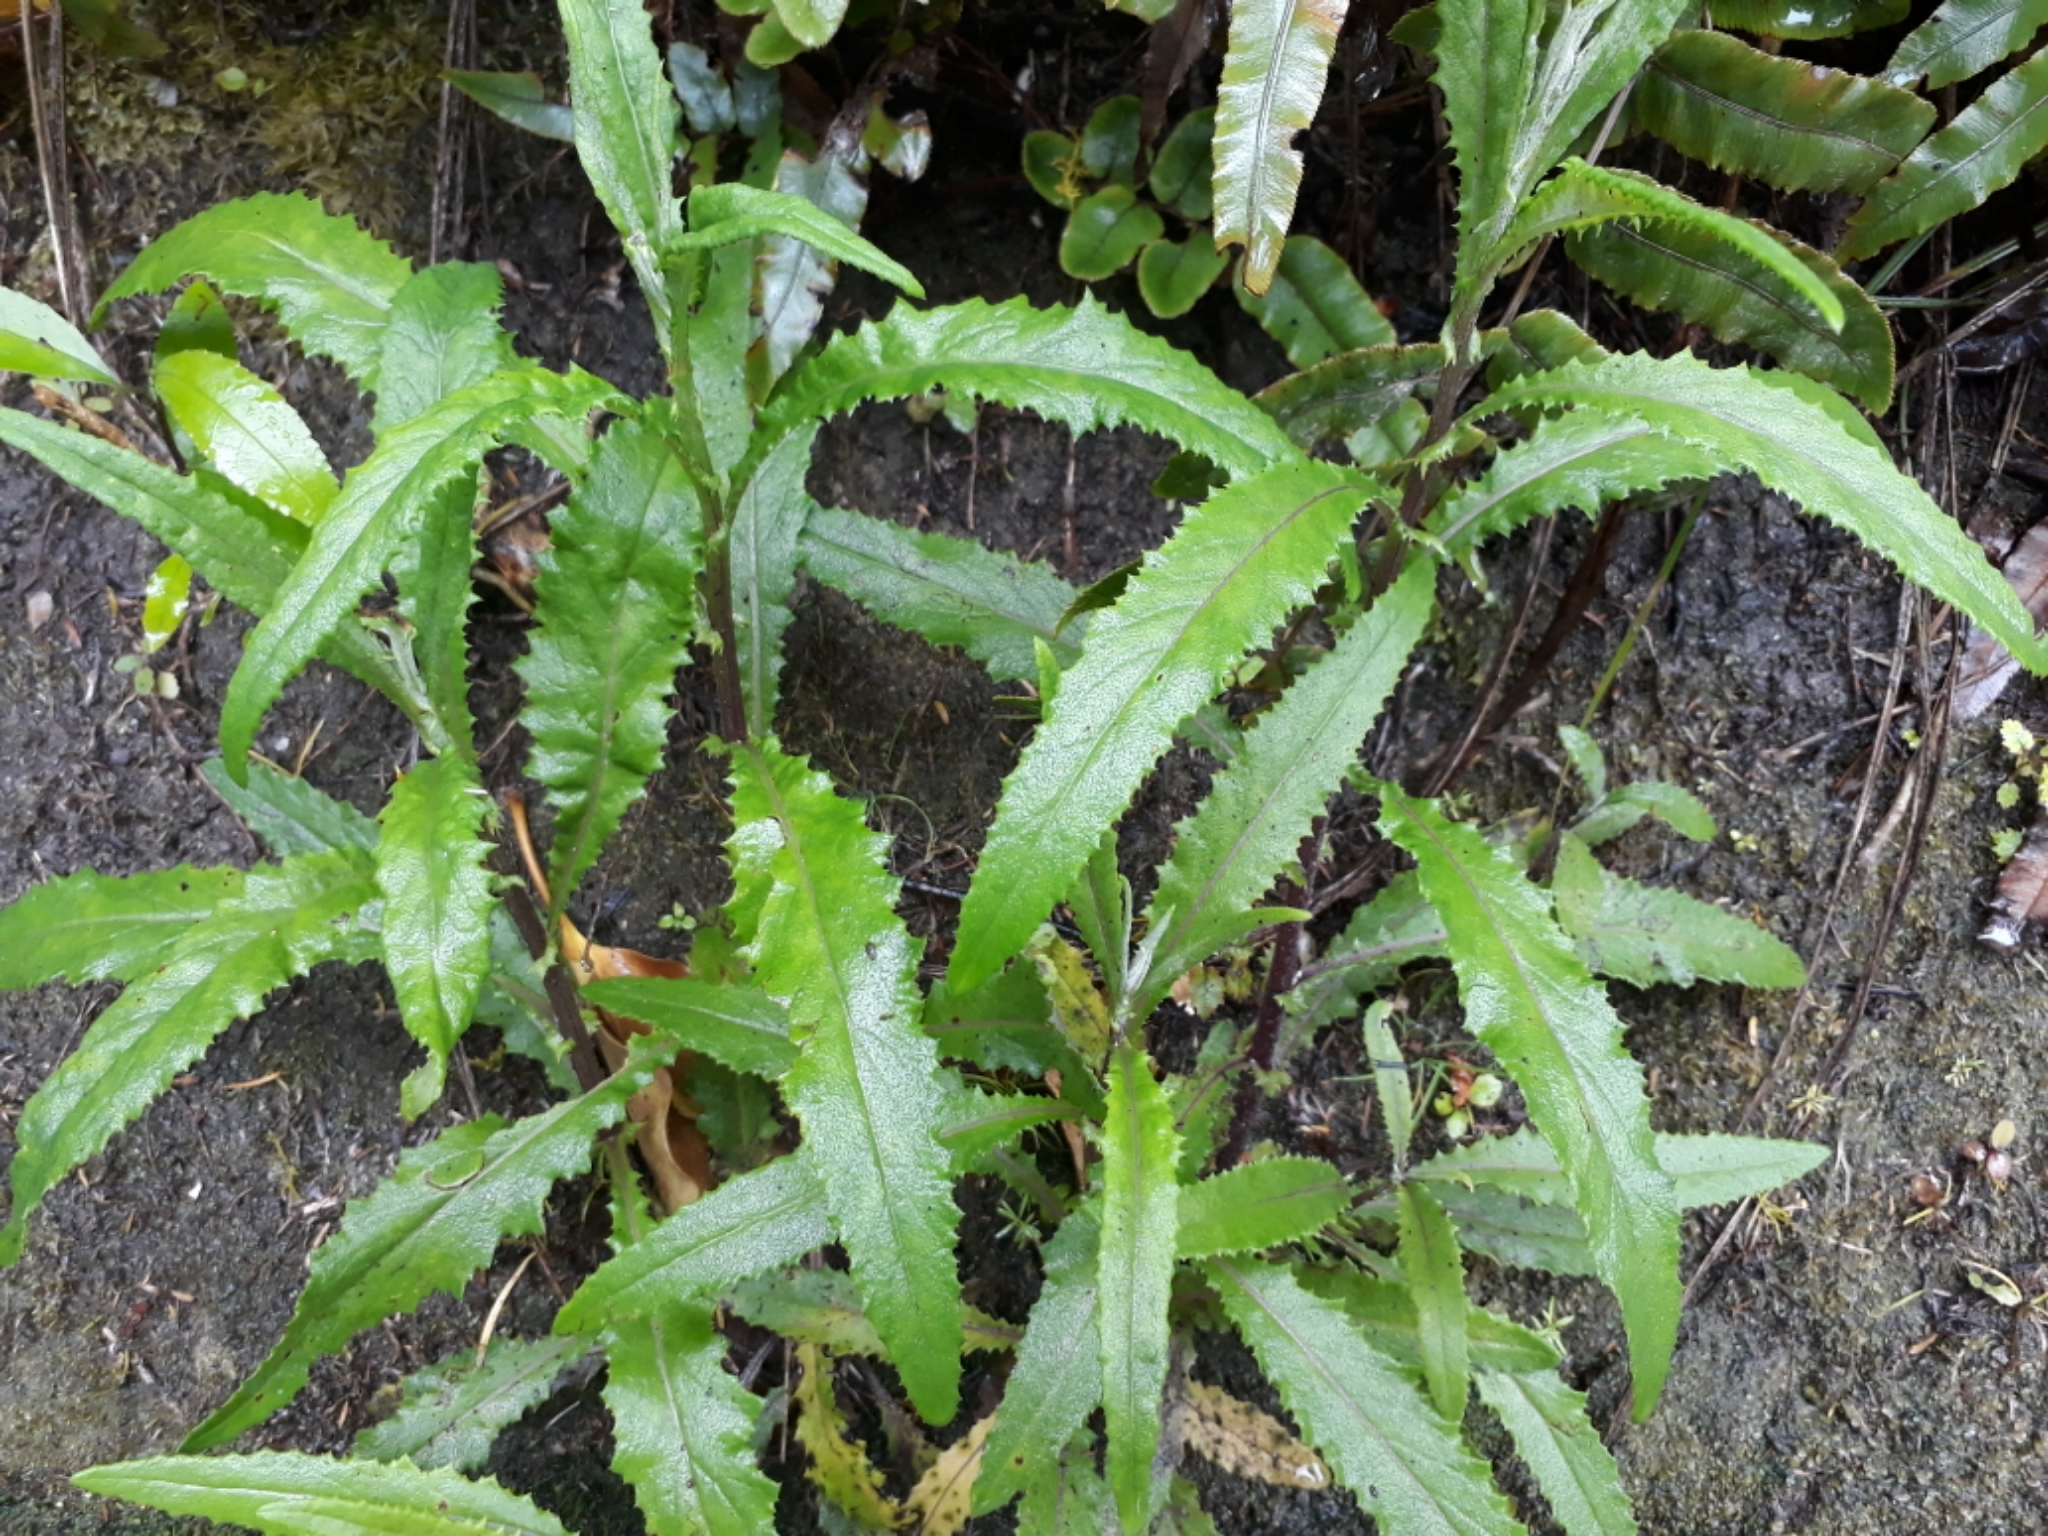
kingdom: Plantae
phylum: Tracheophyta
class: Magnoliopsida
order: Asterales
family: Asteraceae
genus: Senecio
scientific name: Senecio minimus
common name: Toothed fireweed
